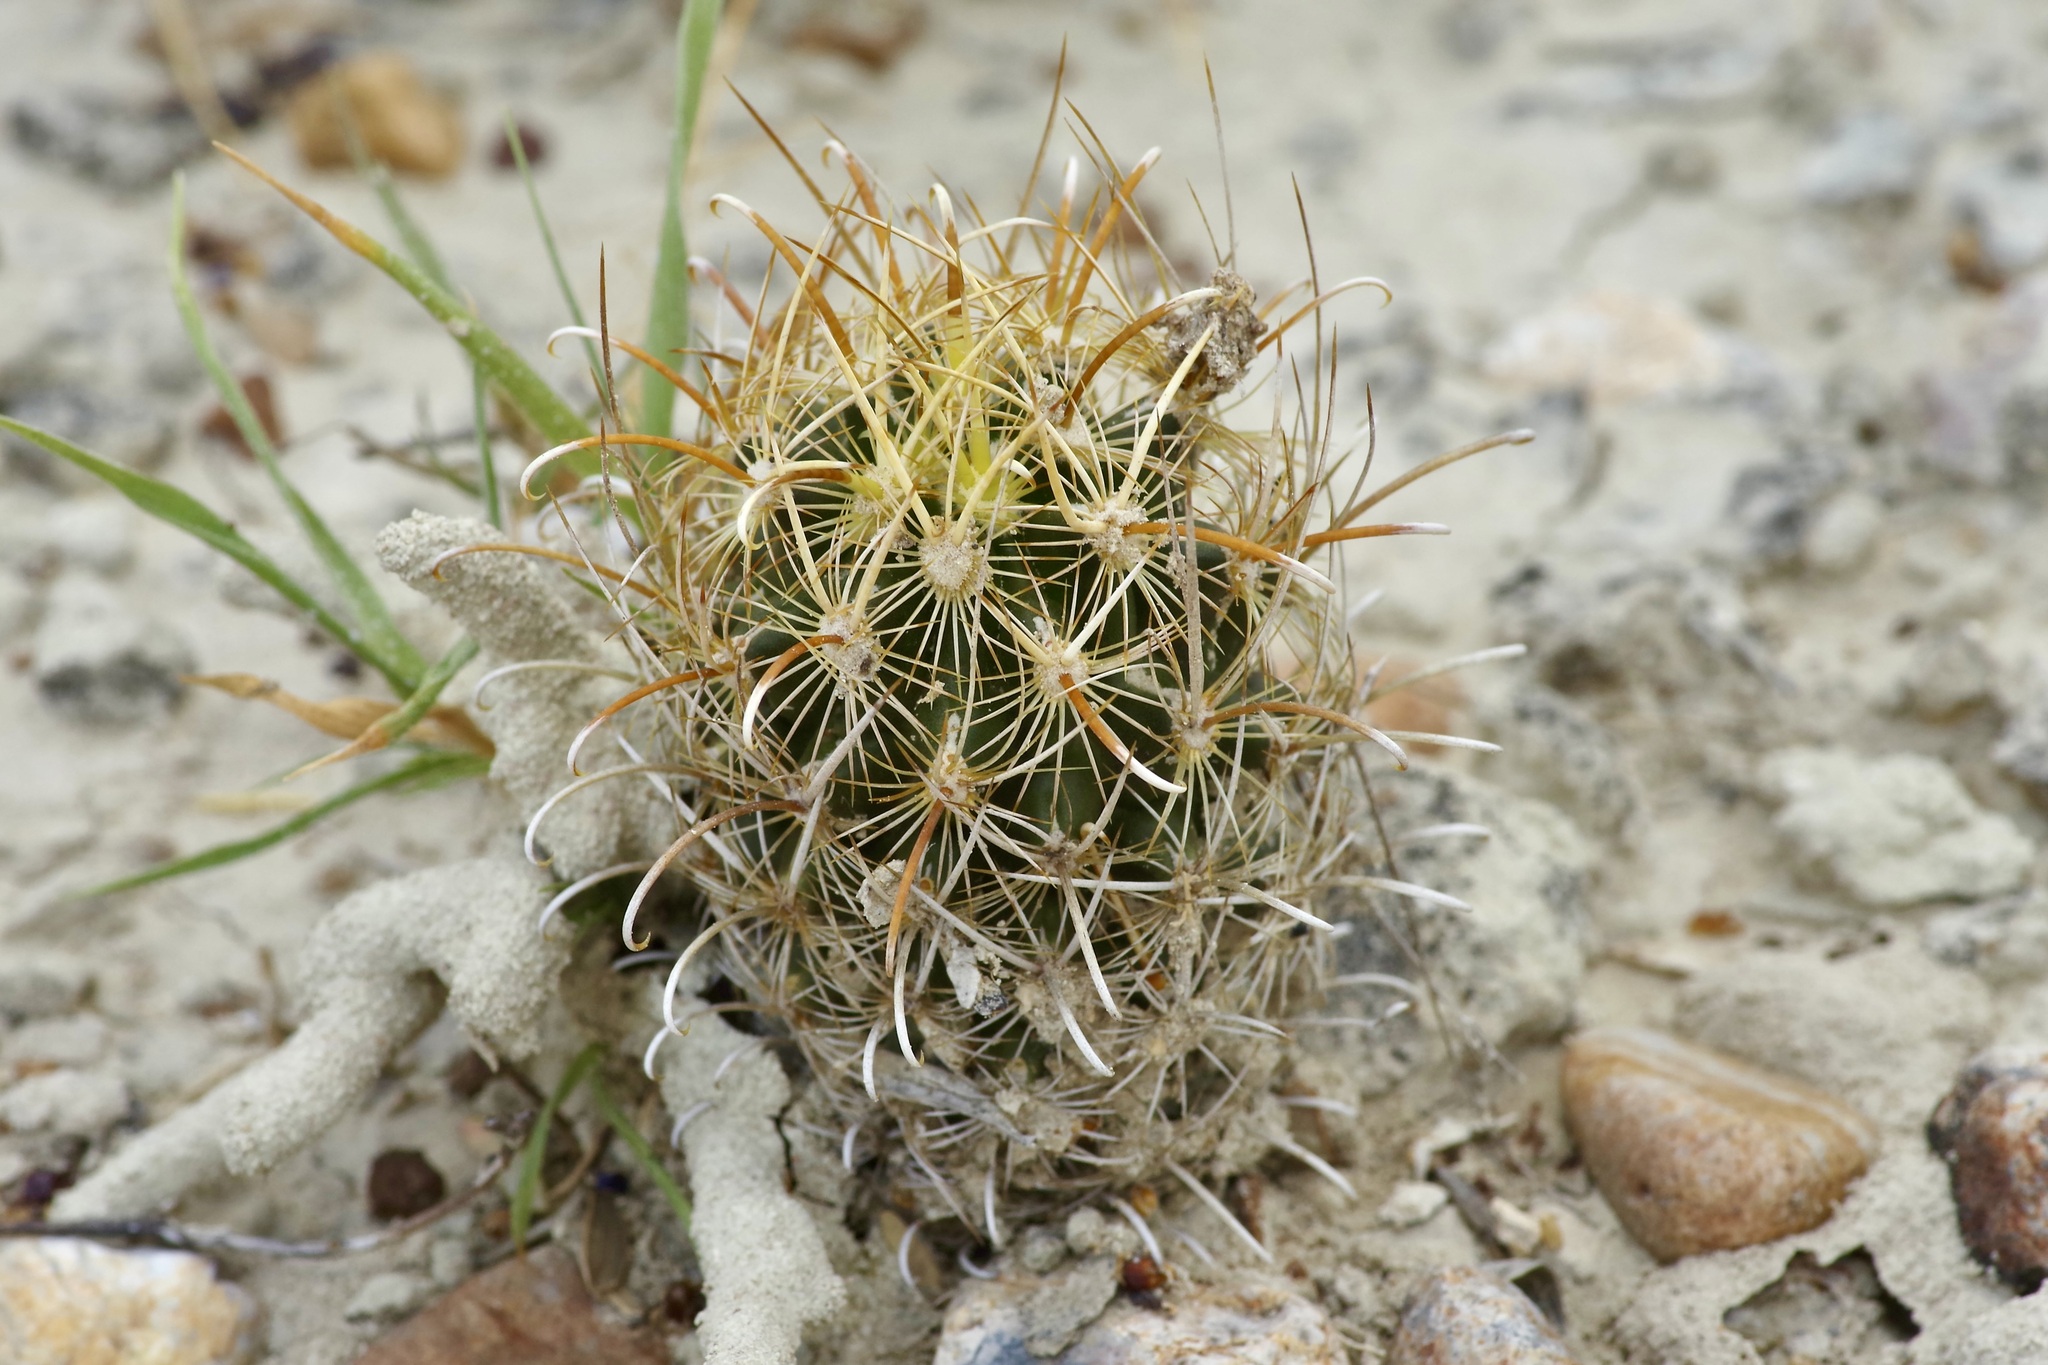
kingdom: Plantae
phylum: Tracheophyta
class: Magnoliopsida
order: Caryophyllales
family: Cactaceae
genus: Sclerocactus
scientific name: Sclerocactus scheerii
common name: Scheer's fish-hook cactus
